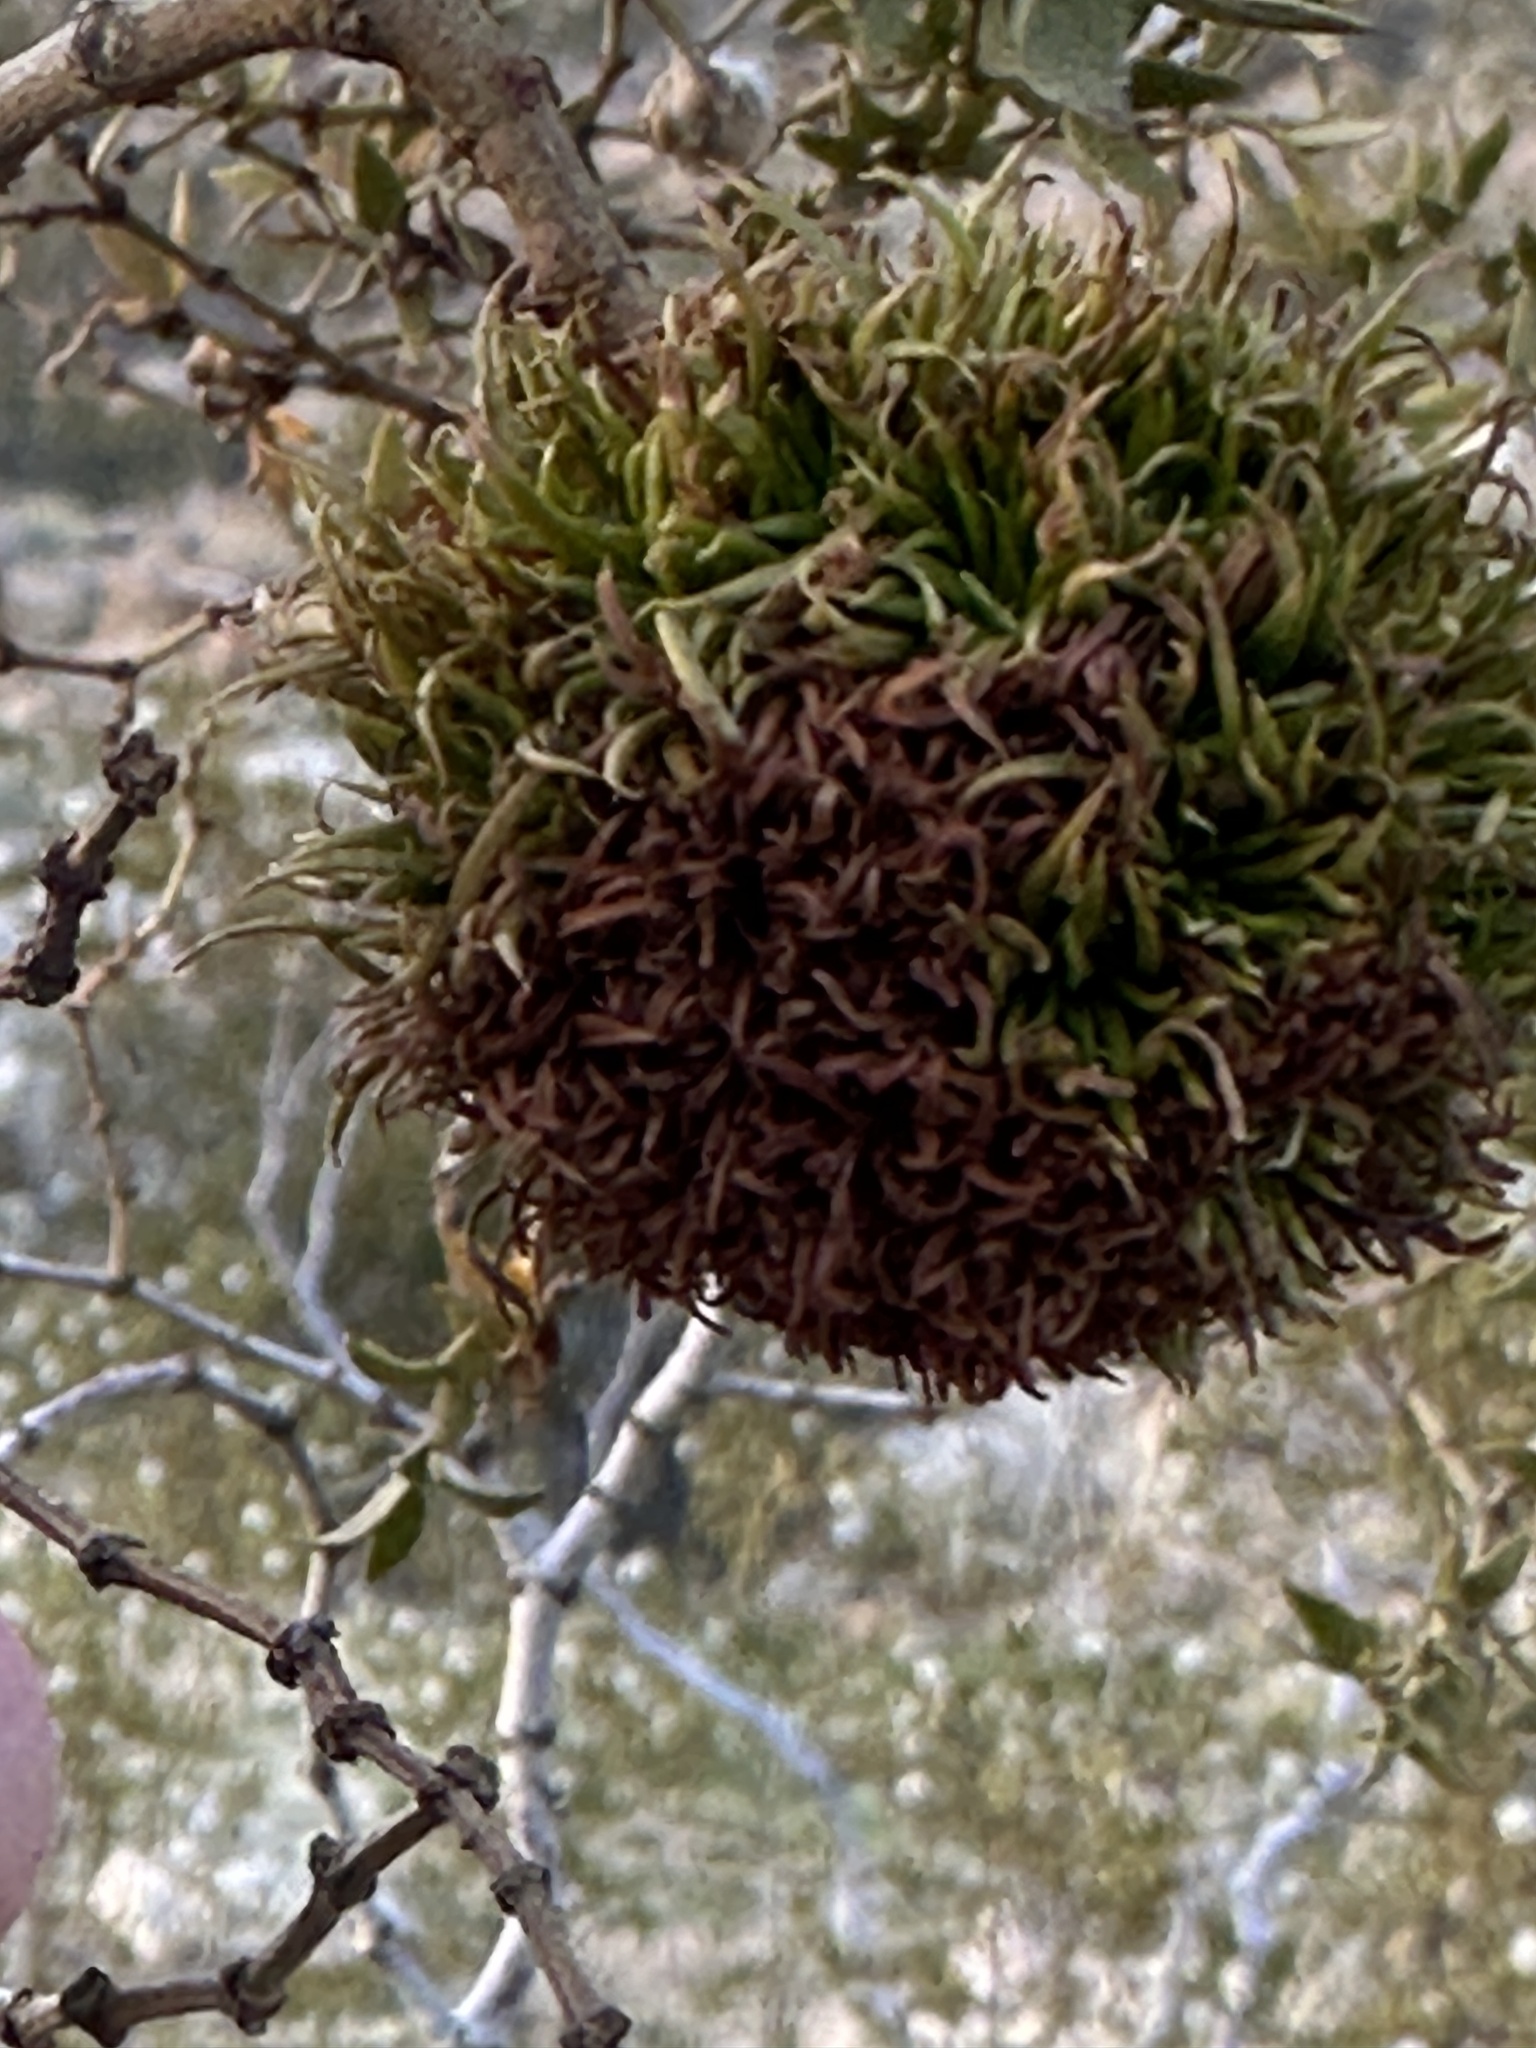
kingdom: Animalia
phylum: Arthropoda
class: Insecta
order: Diptera
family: Cecidomyiidae
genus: Asphondylia
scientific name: Asphondylia auripila
